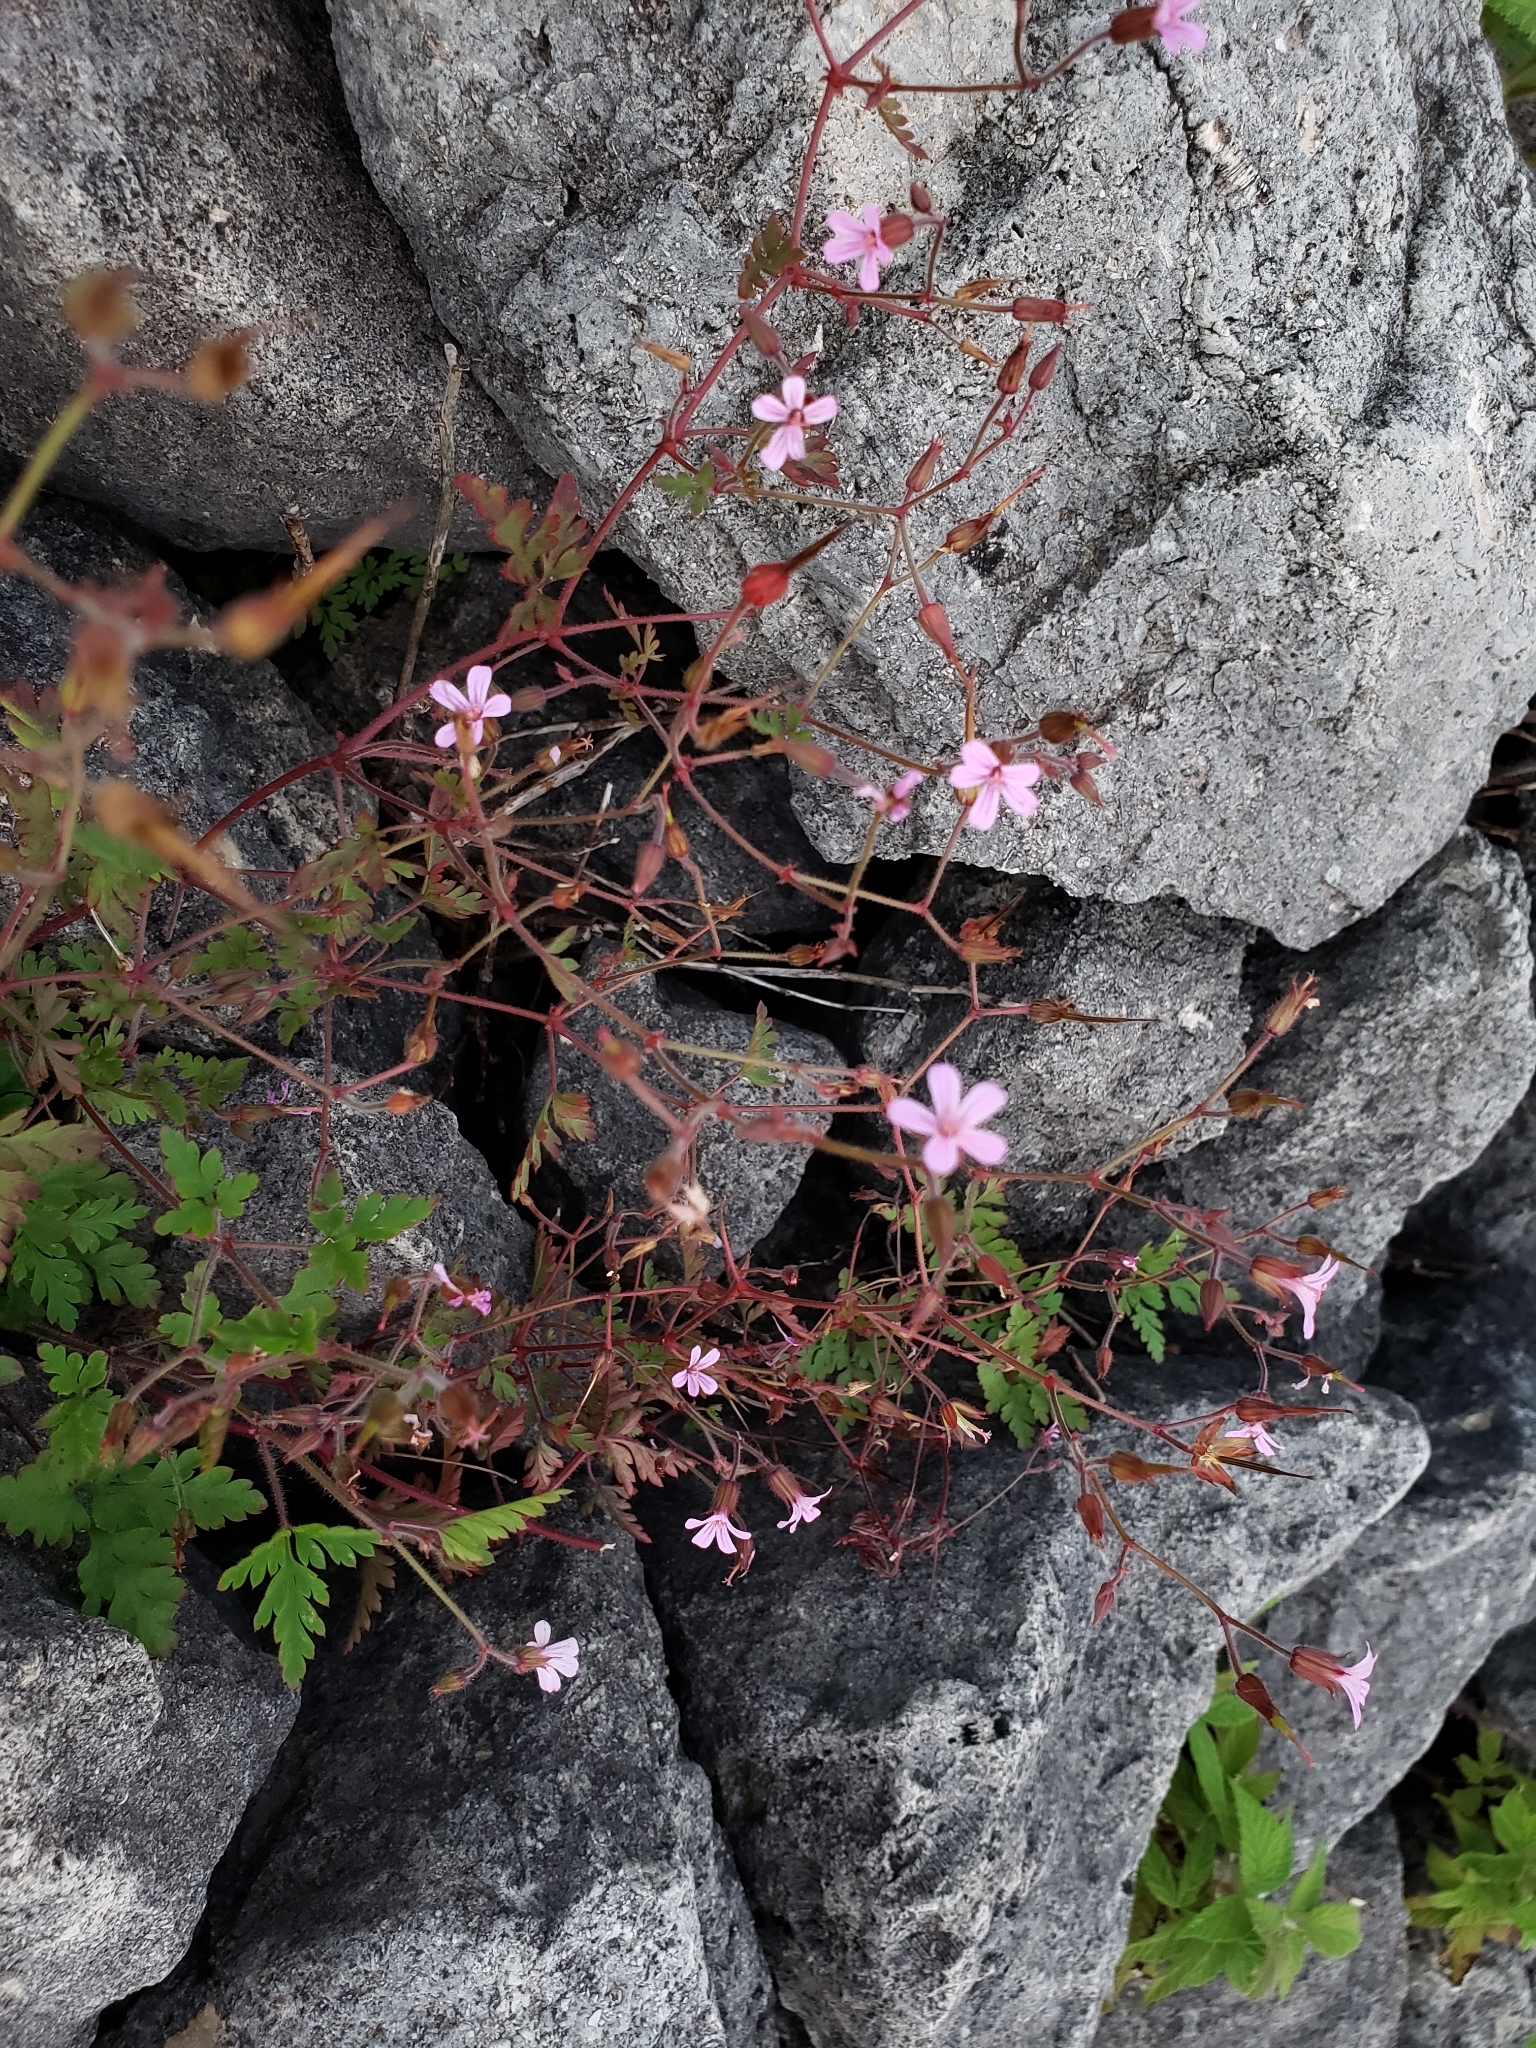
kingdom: Plantae
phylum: Tracheophyta
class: Magnoliopsida
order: Geraniales
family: Geraniaceae
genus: Geranium
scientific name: Geranium robertianum
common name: Herb-robert
